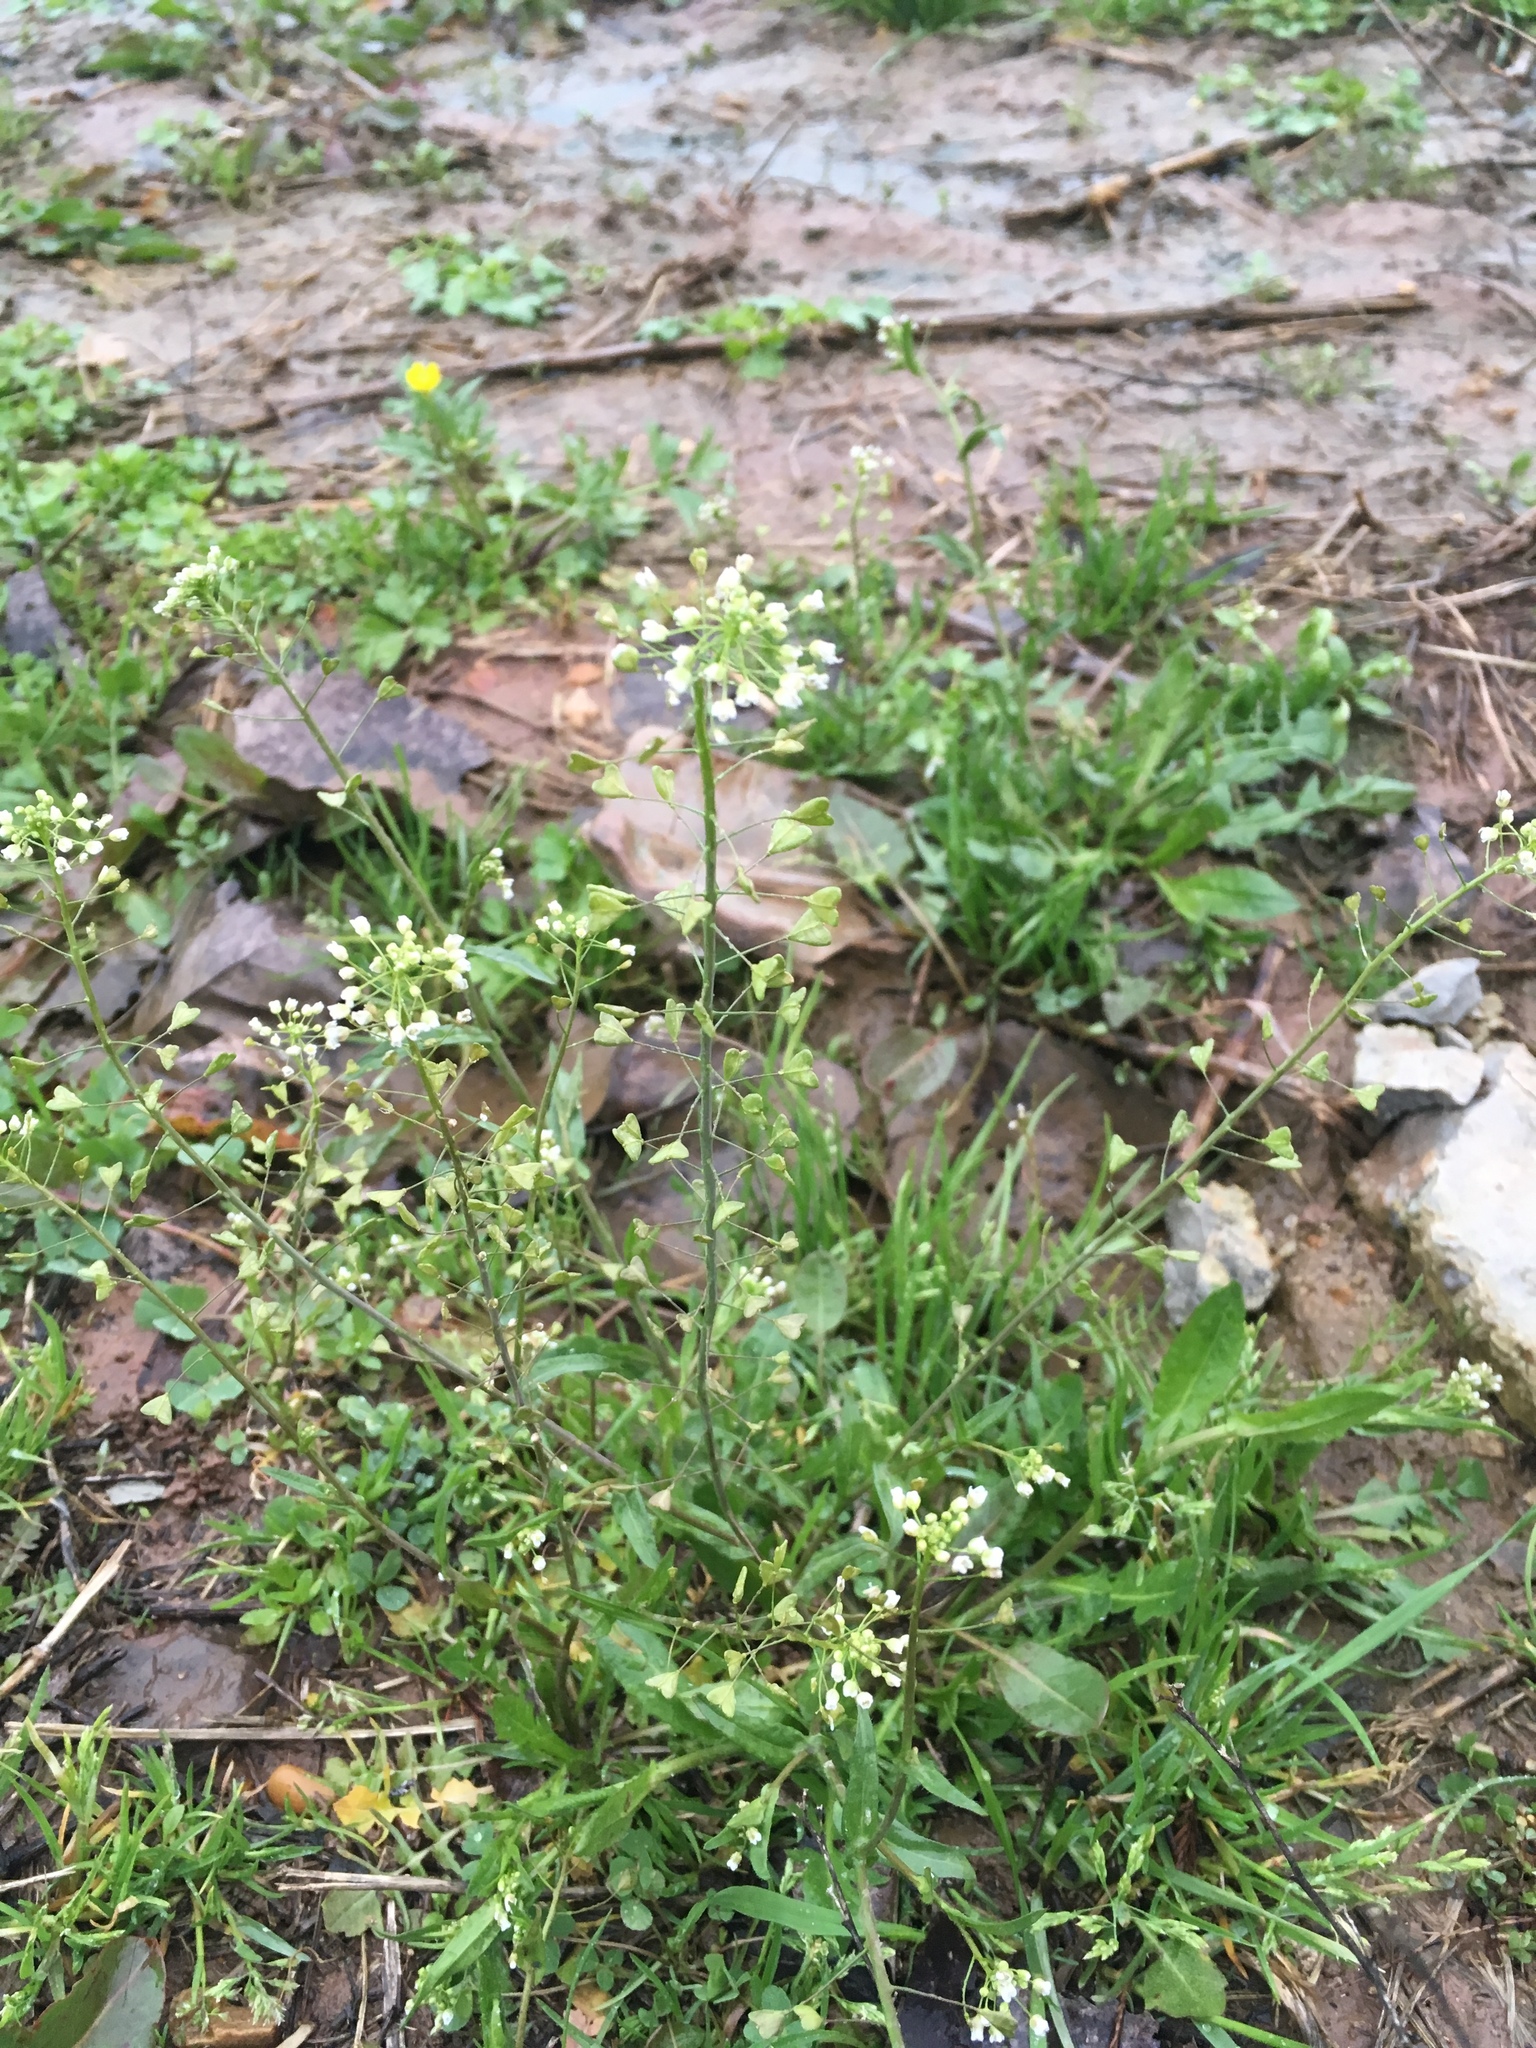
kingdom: Plantae
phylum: Tracheophyta
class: Magnoliopsida
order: Brassicales
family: Brassicaceae
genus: Capsella
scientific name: Capsella bursa-pastoris
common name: Shepherd's purse
